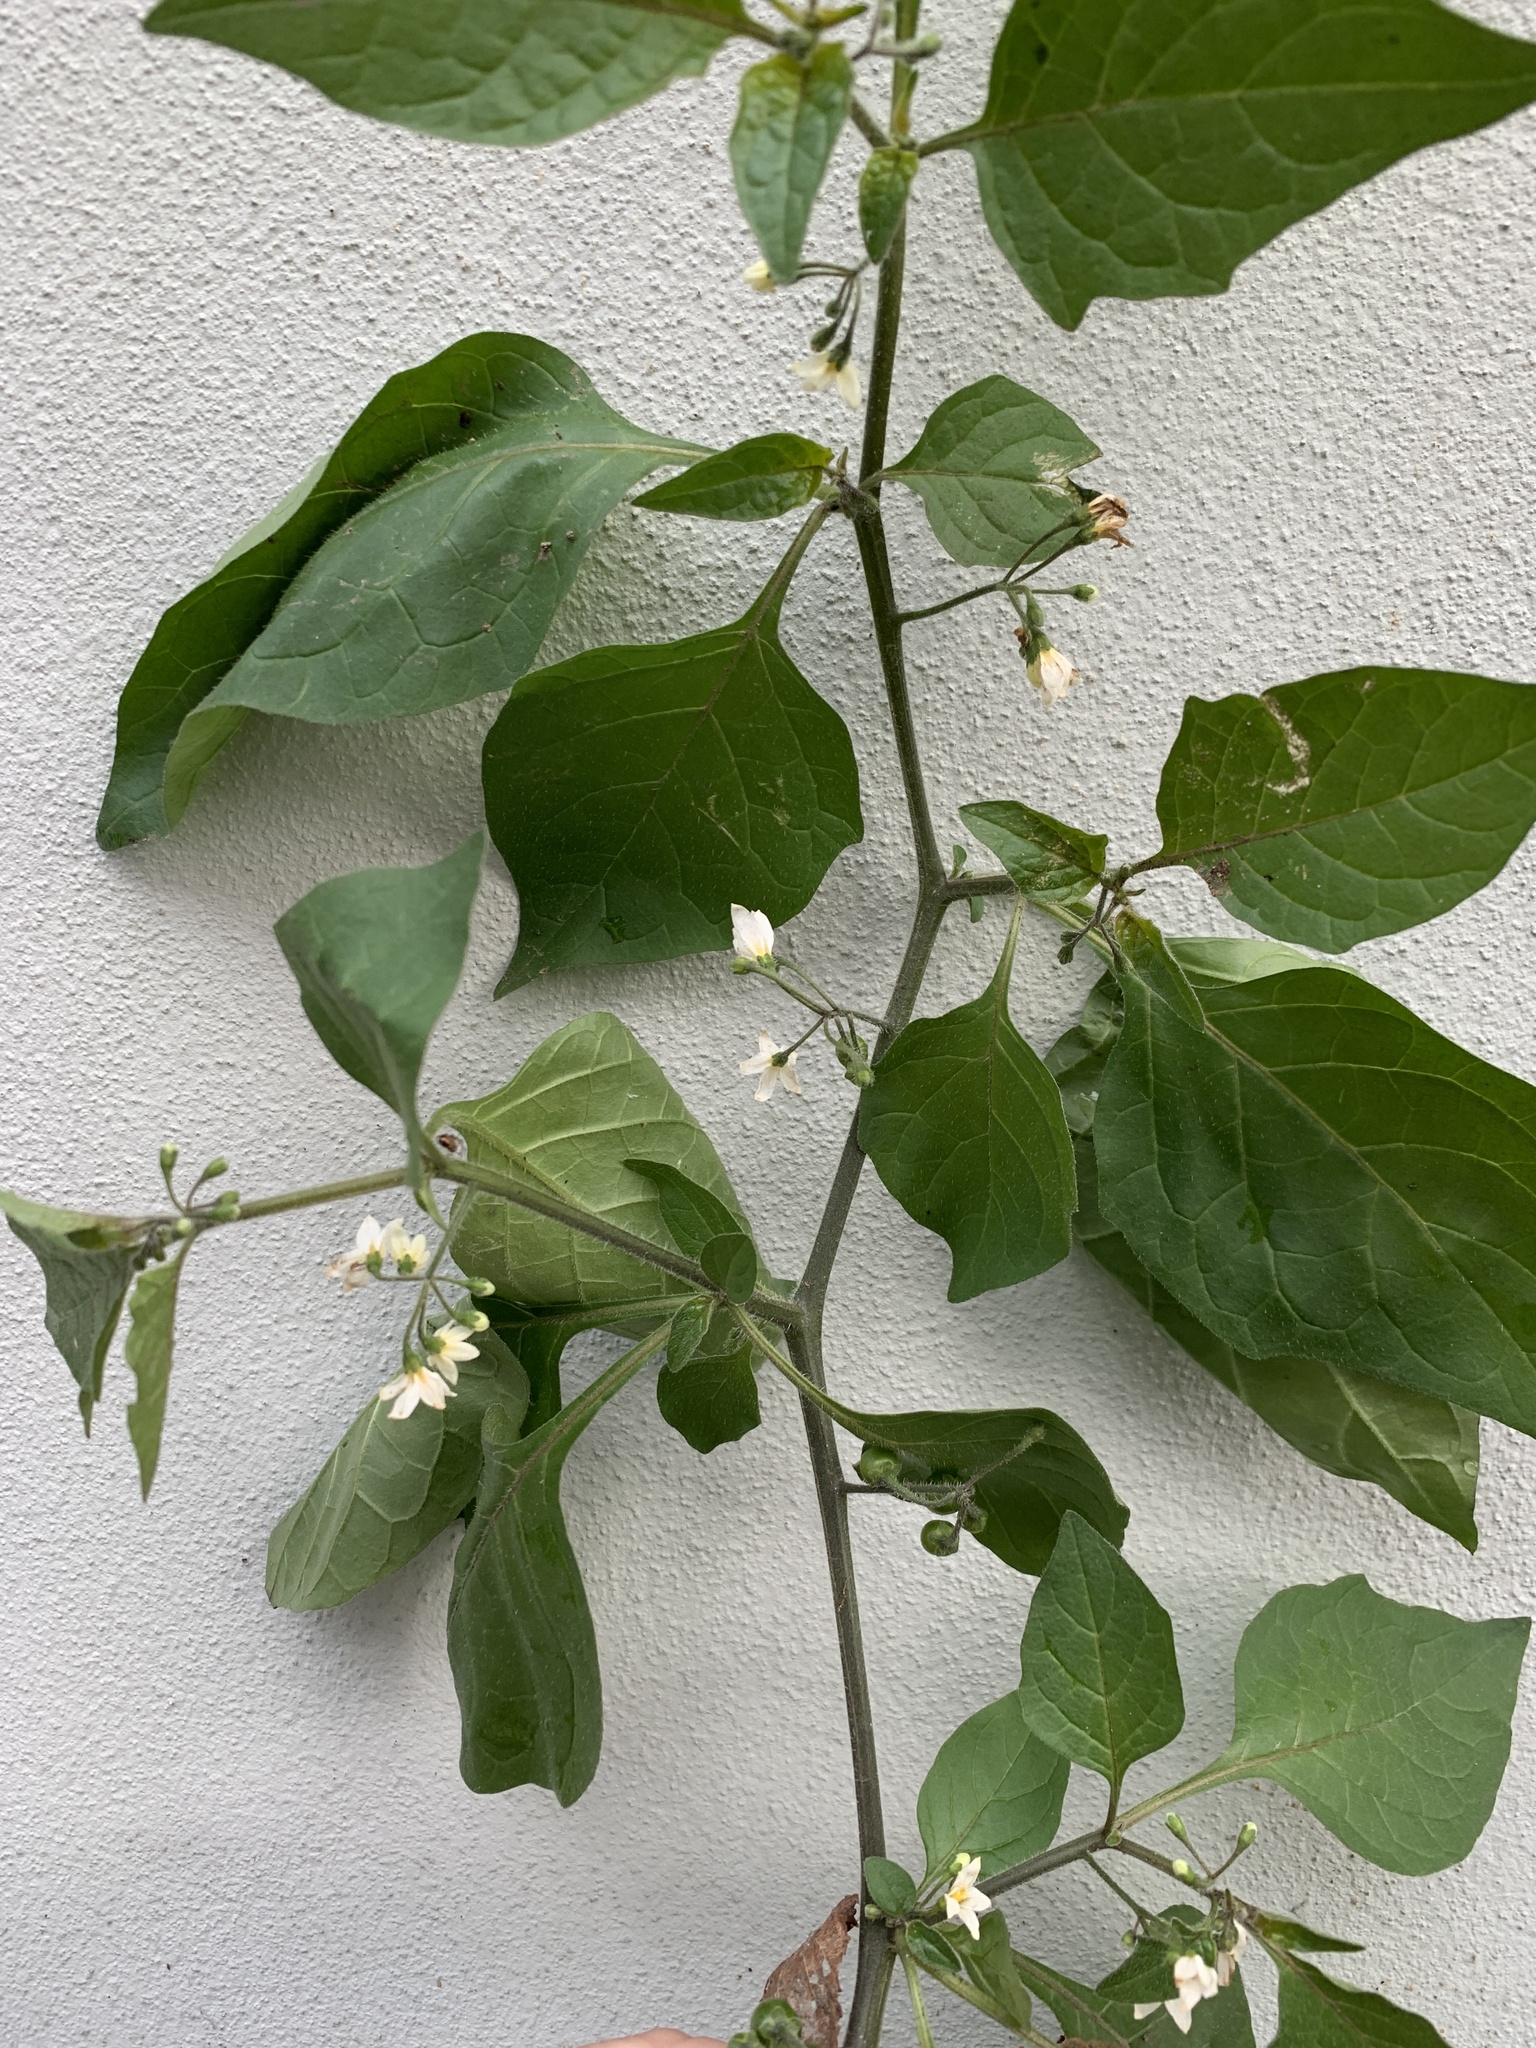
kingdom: Plantae
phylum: Tracheophyta
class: Magnoliopsida
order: Solanales
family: Solanaceae
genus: Solanum
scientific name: Solanum nigrum
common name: Black nightshade
